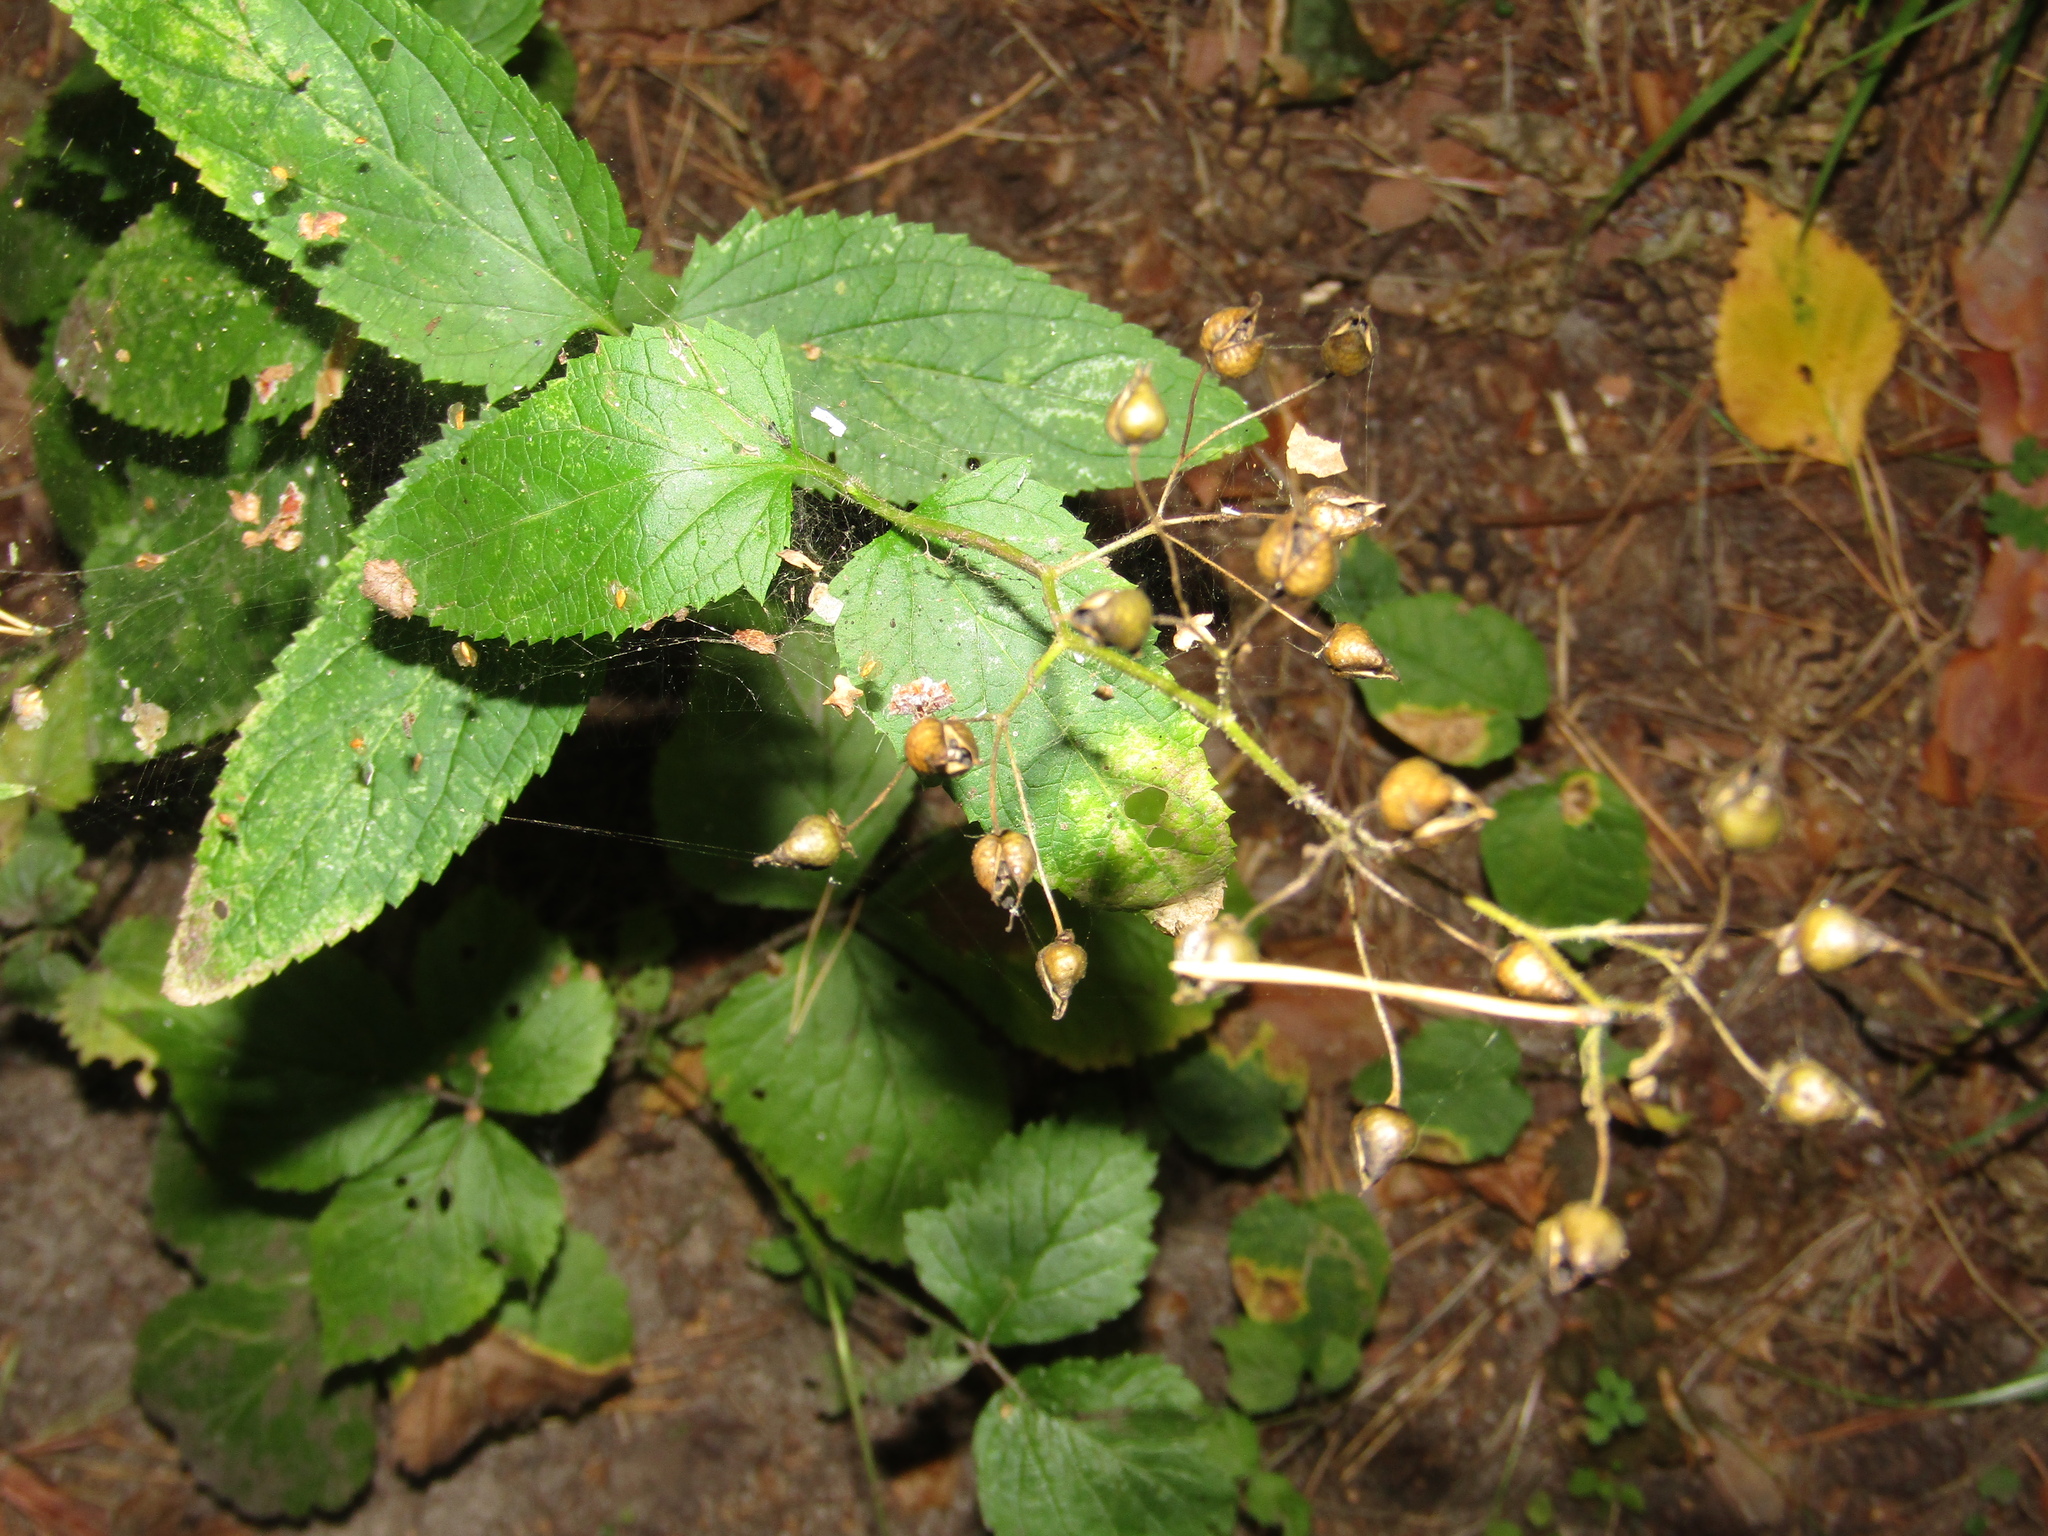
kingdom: Plantae
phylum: Tracheophyta
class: Magnoliopsida
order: Lamiales
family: Scrophulariaceae
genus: Scrophularia
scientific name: Scrophularia nodosa
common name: Common figwort
